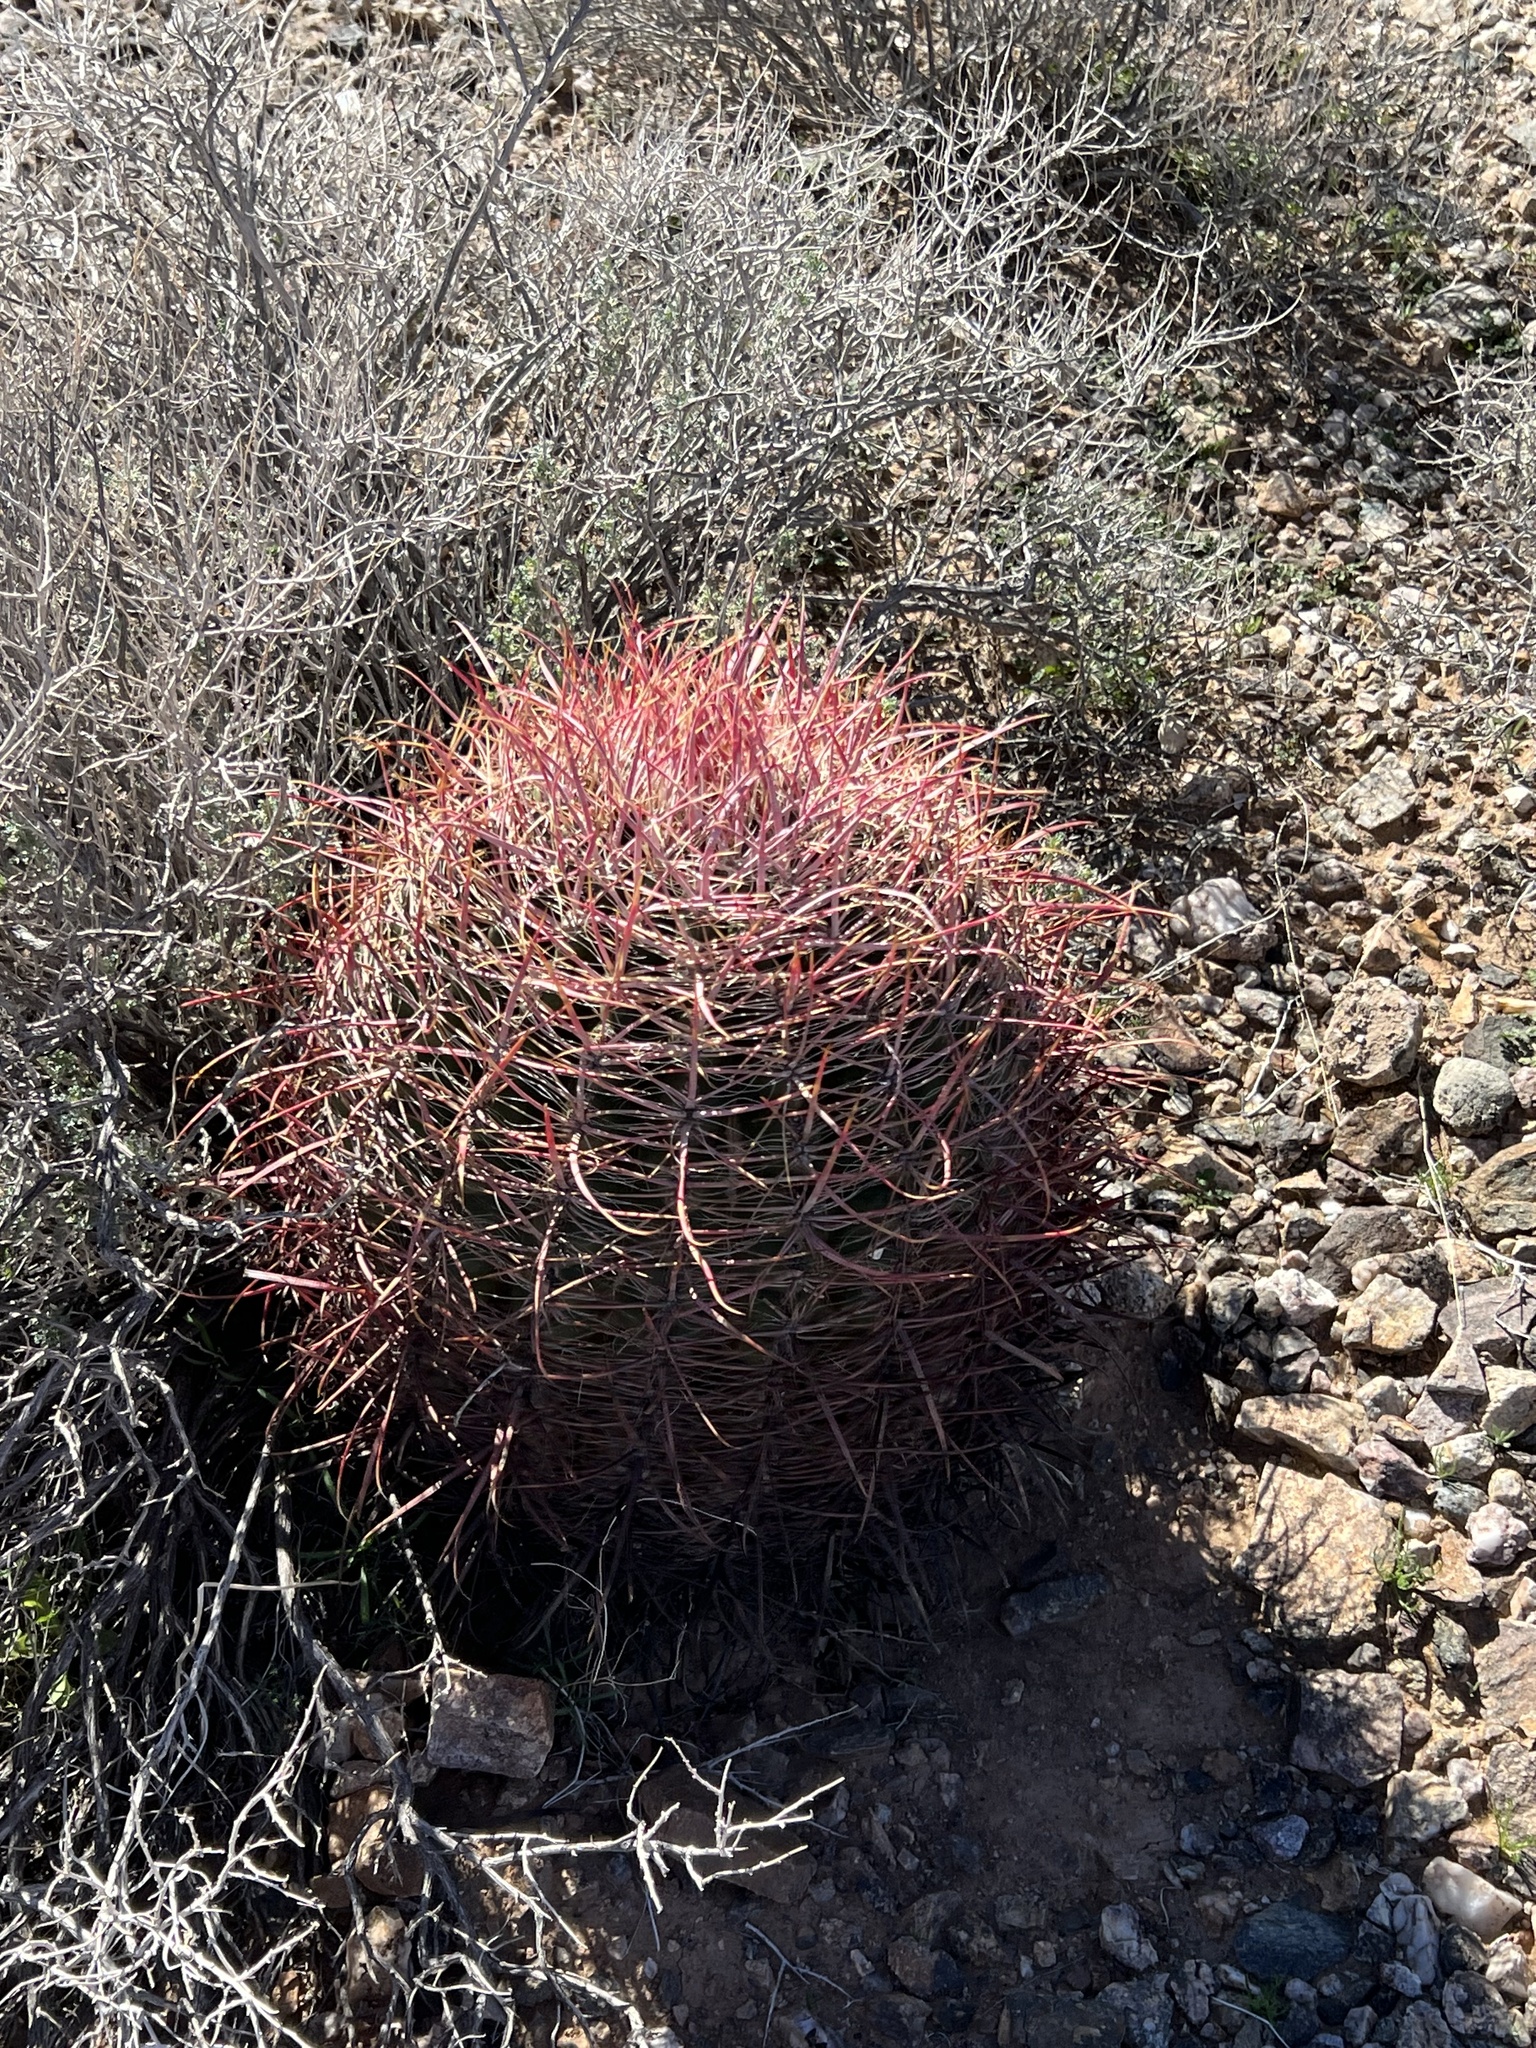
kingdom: Plantae
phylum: Tracheophyta
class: Magnoliopsida
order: Caryophyllales
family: Cactaceae
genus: Ferocactus
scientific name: Ferocactus cylindraceus
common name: California barrel cactus
